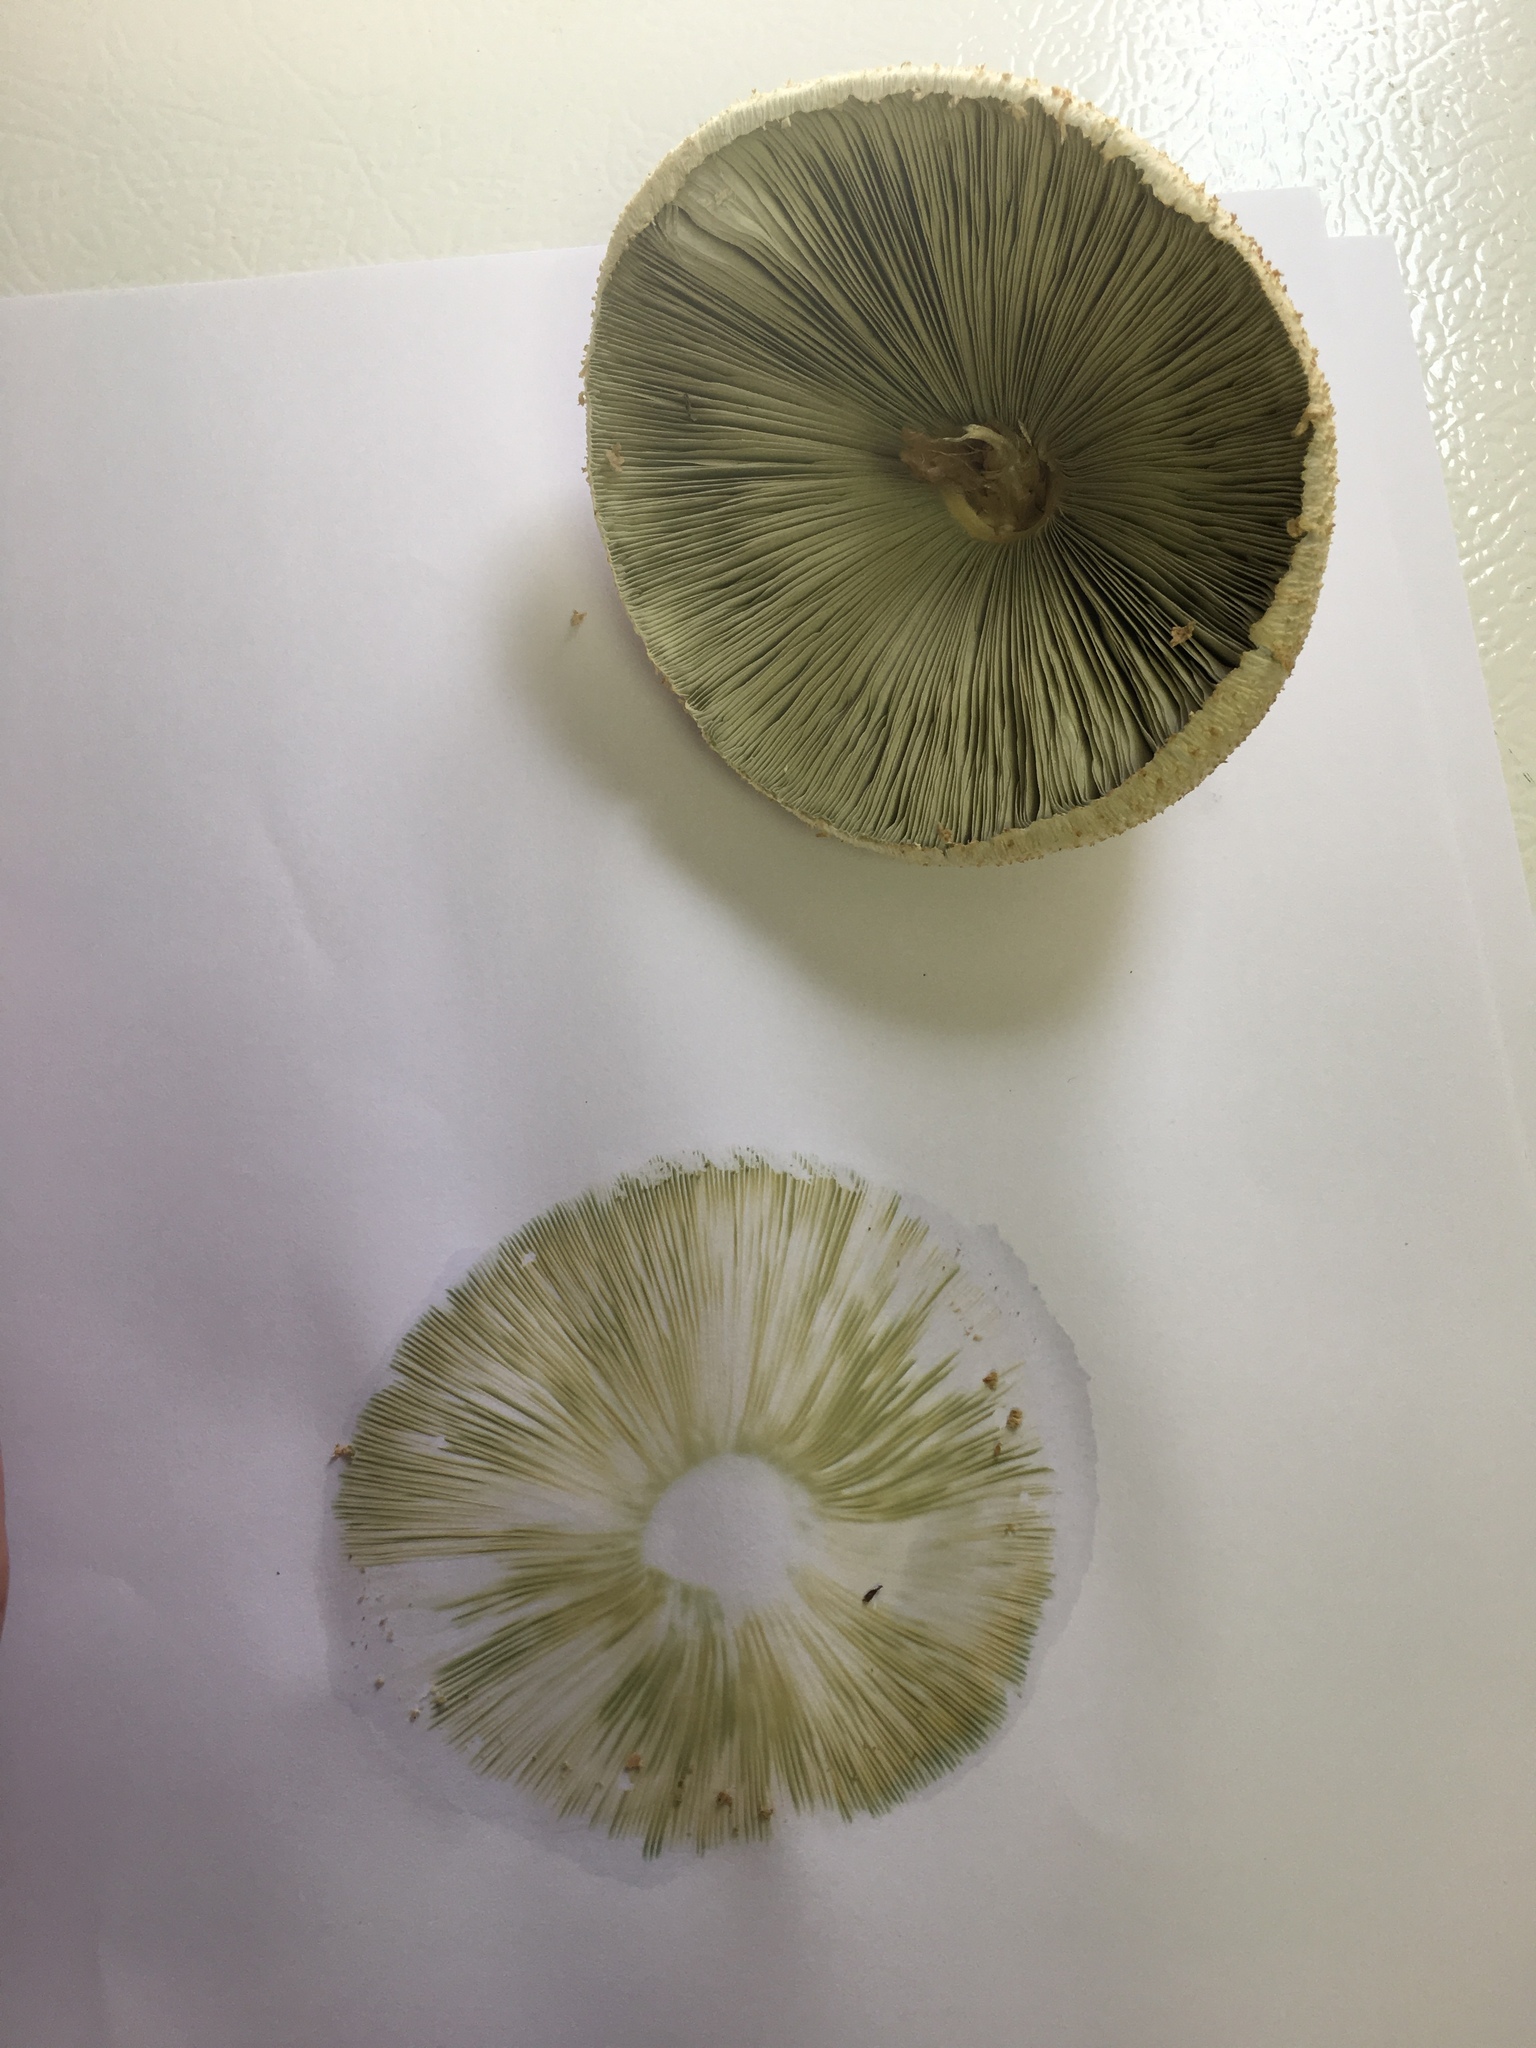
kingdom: Fungi
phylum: Basidiomycota
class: Agaricomycetes
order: Agaricales
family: Agaricaceae
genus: Chlorophyllum
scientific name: Chlorophyllum molybdites
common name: False parasol
